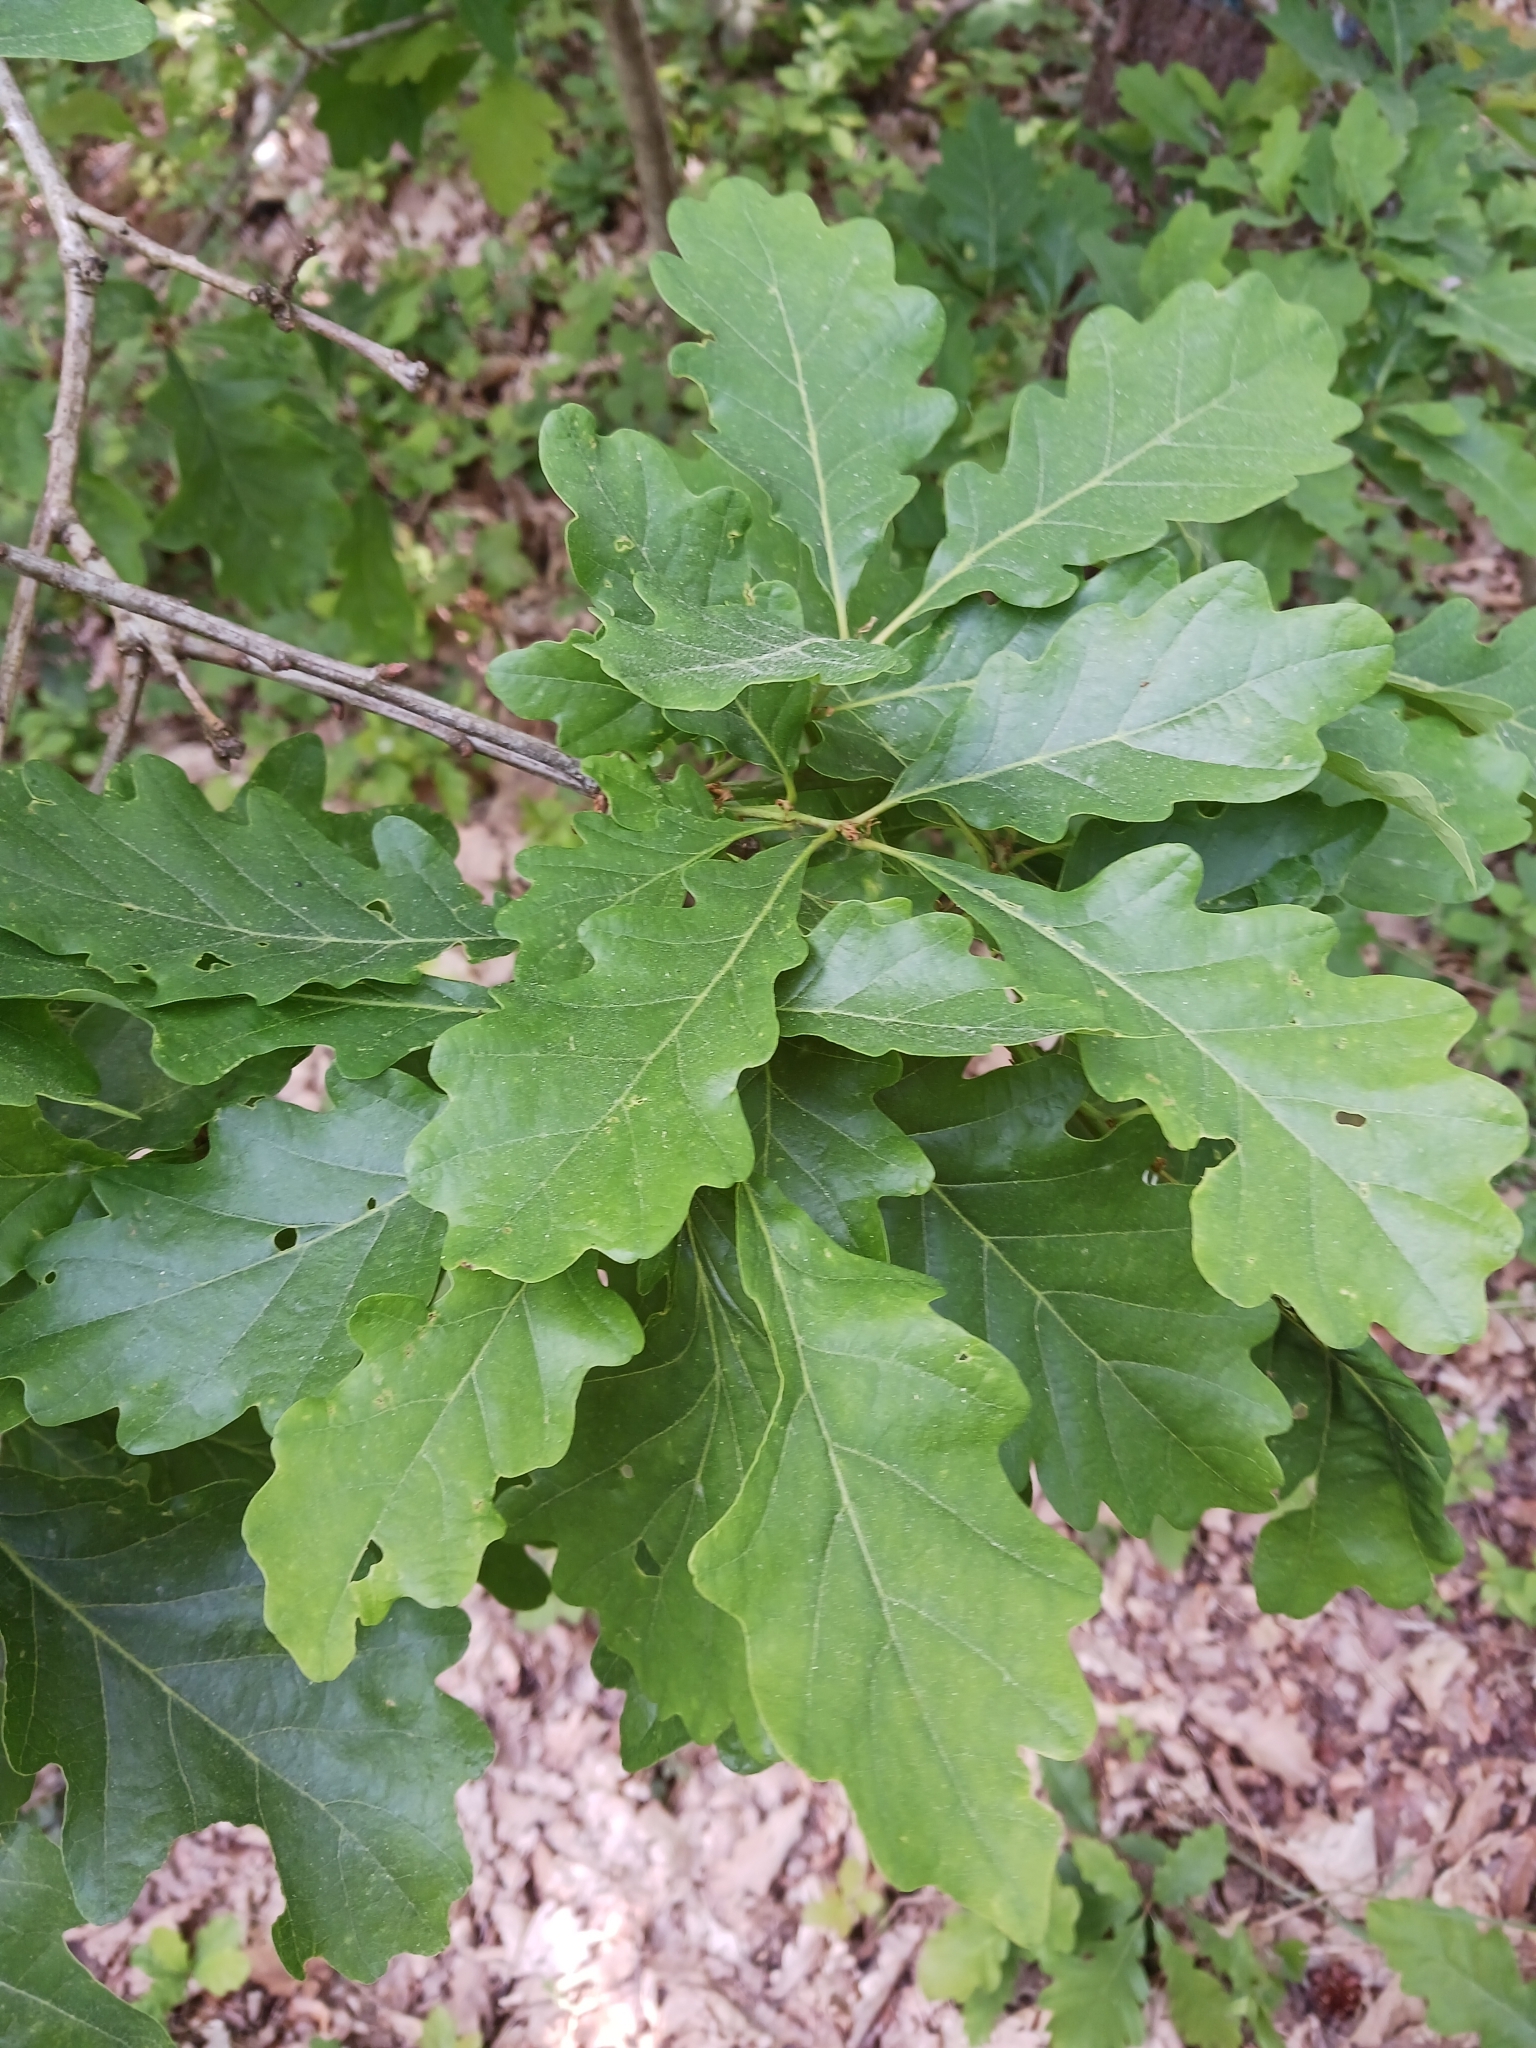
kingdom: Plantae
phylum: Tracheophyta
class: Magnoliopsida
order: Fagales
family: Fagaceae
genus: Quercus
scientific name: Quercus robur
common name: Pedunculate oak
